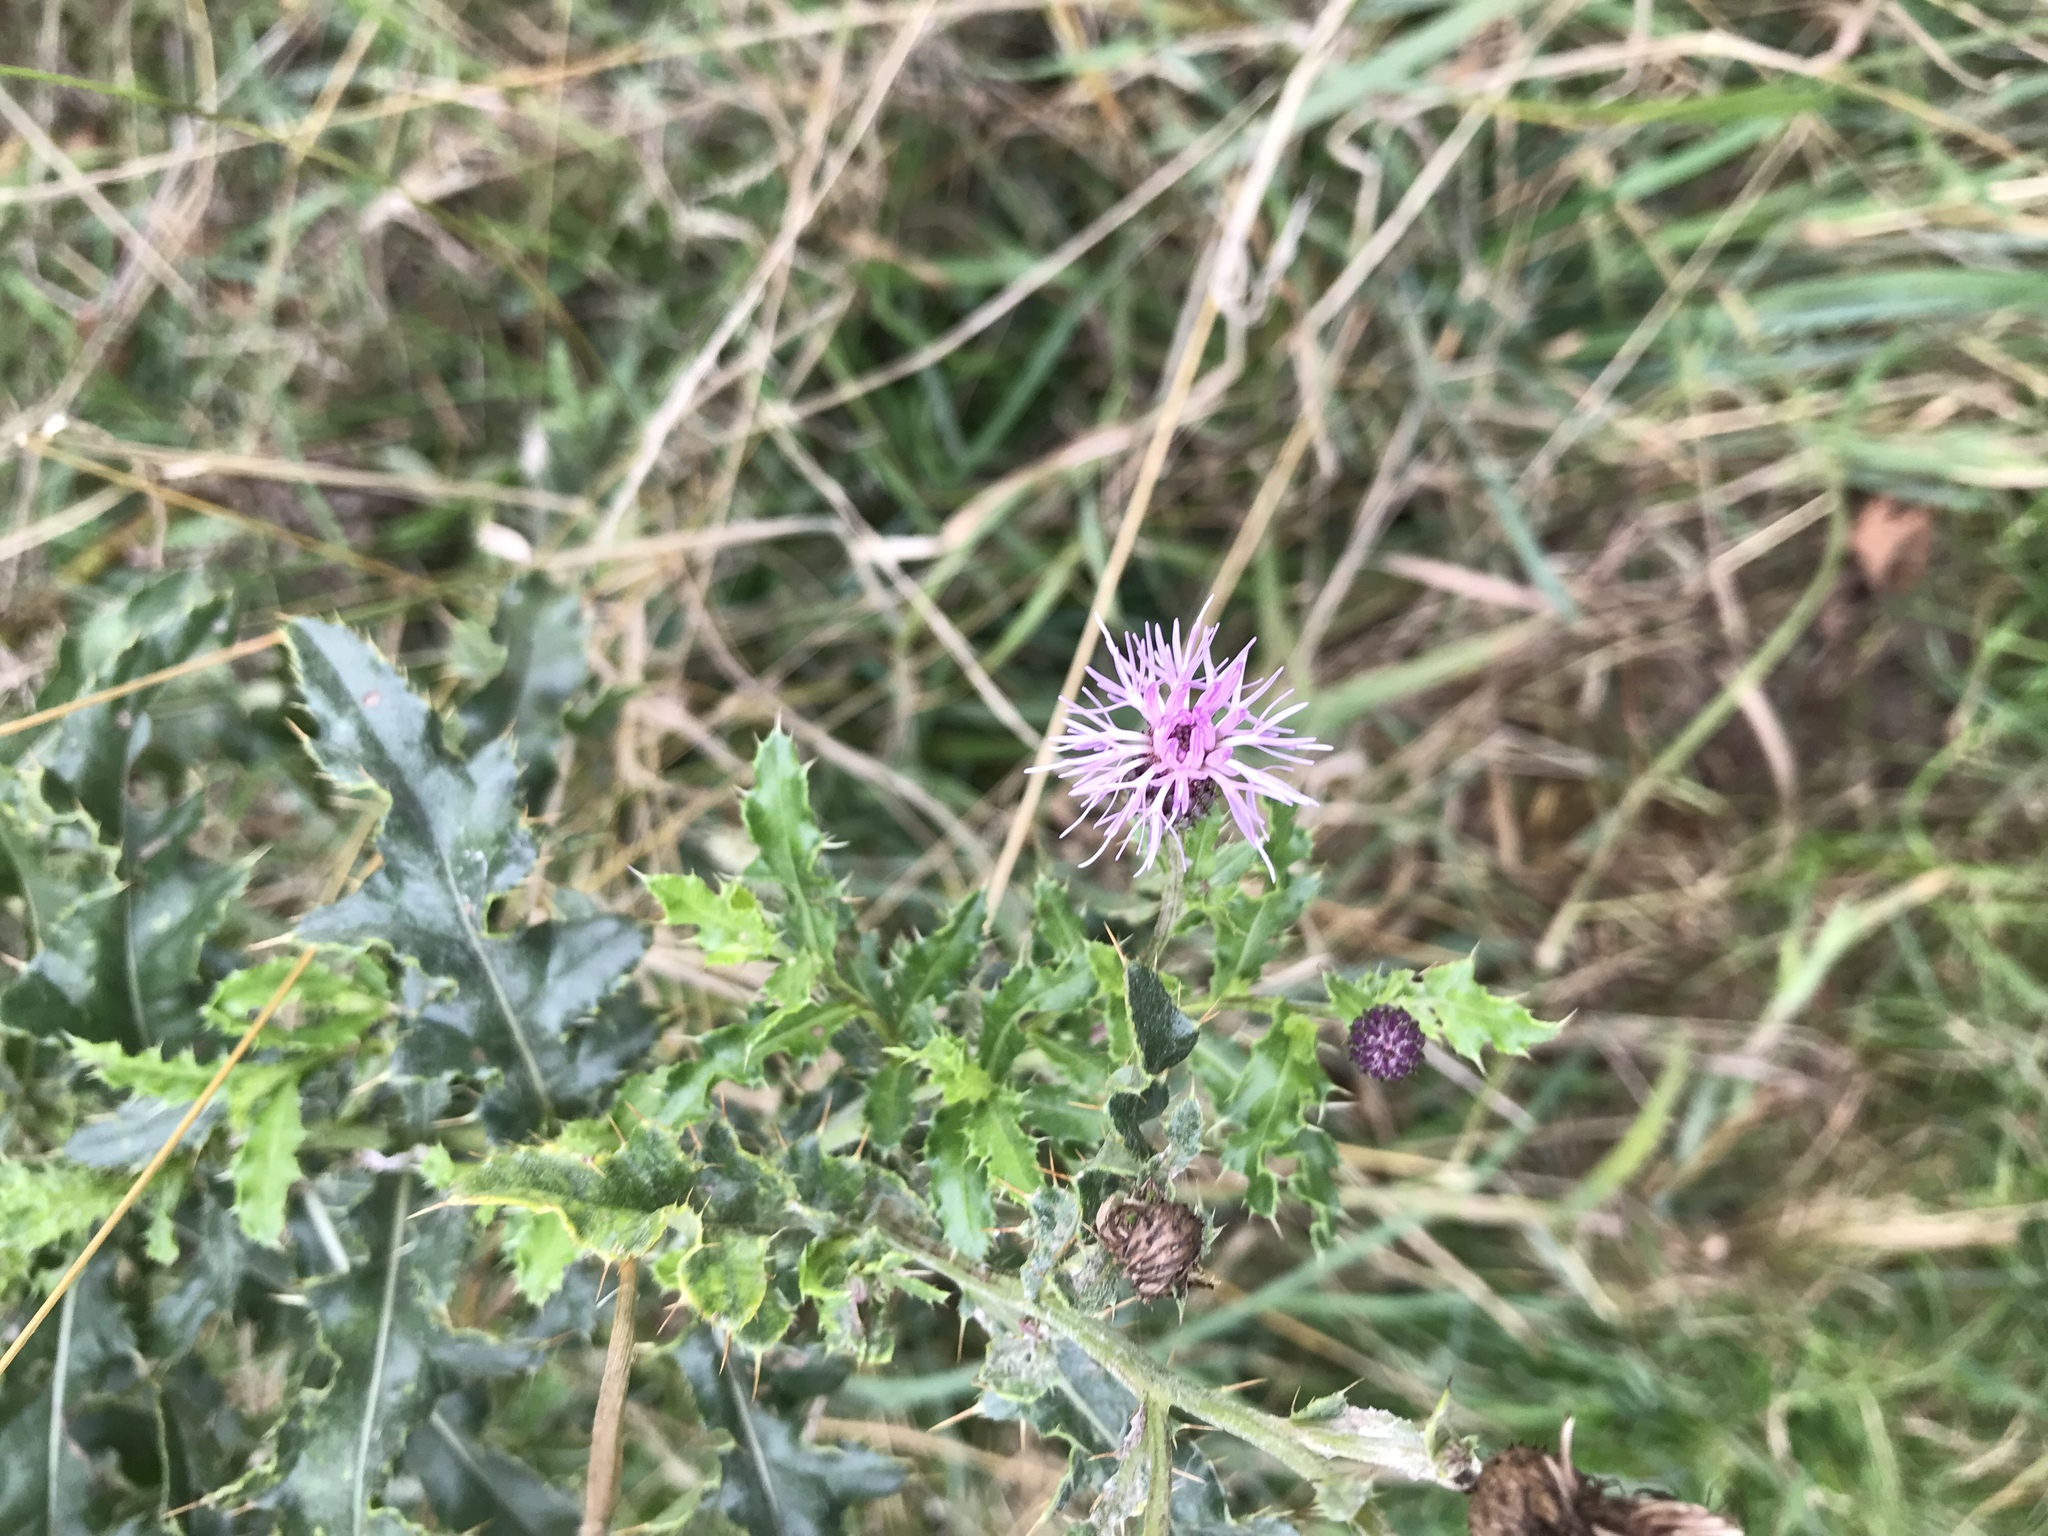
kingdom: Plantae
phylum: Tracheophyta
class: Magnoliopsida
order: Asterales
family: Asteraceae
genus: Cirsium
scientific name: Cirsium arvense
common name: Creeping thistle
